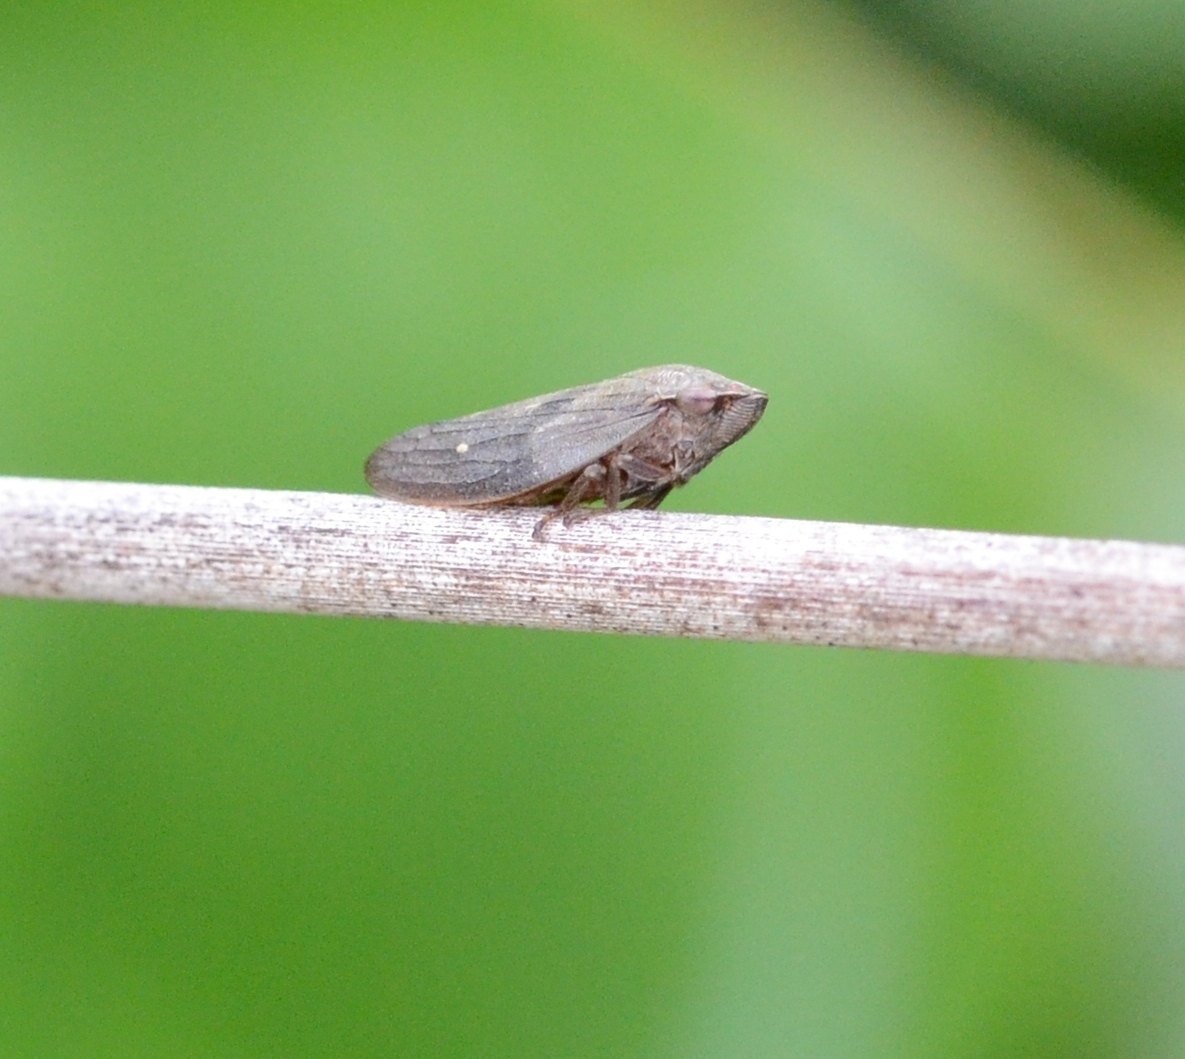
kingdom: Animalia
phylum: Arthropoda
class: Insecta
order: Hemiptera
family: Aphrophoridae
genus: Aphrophora
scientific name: Aphrophora major
